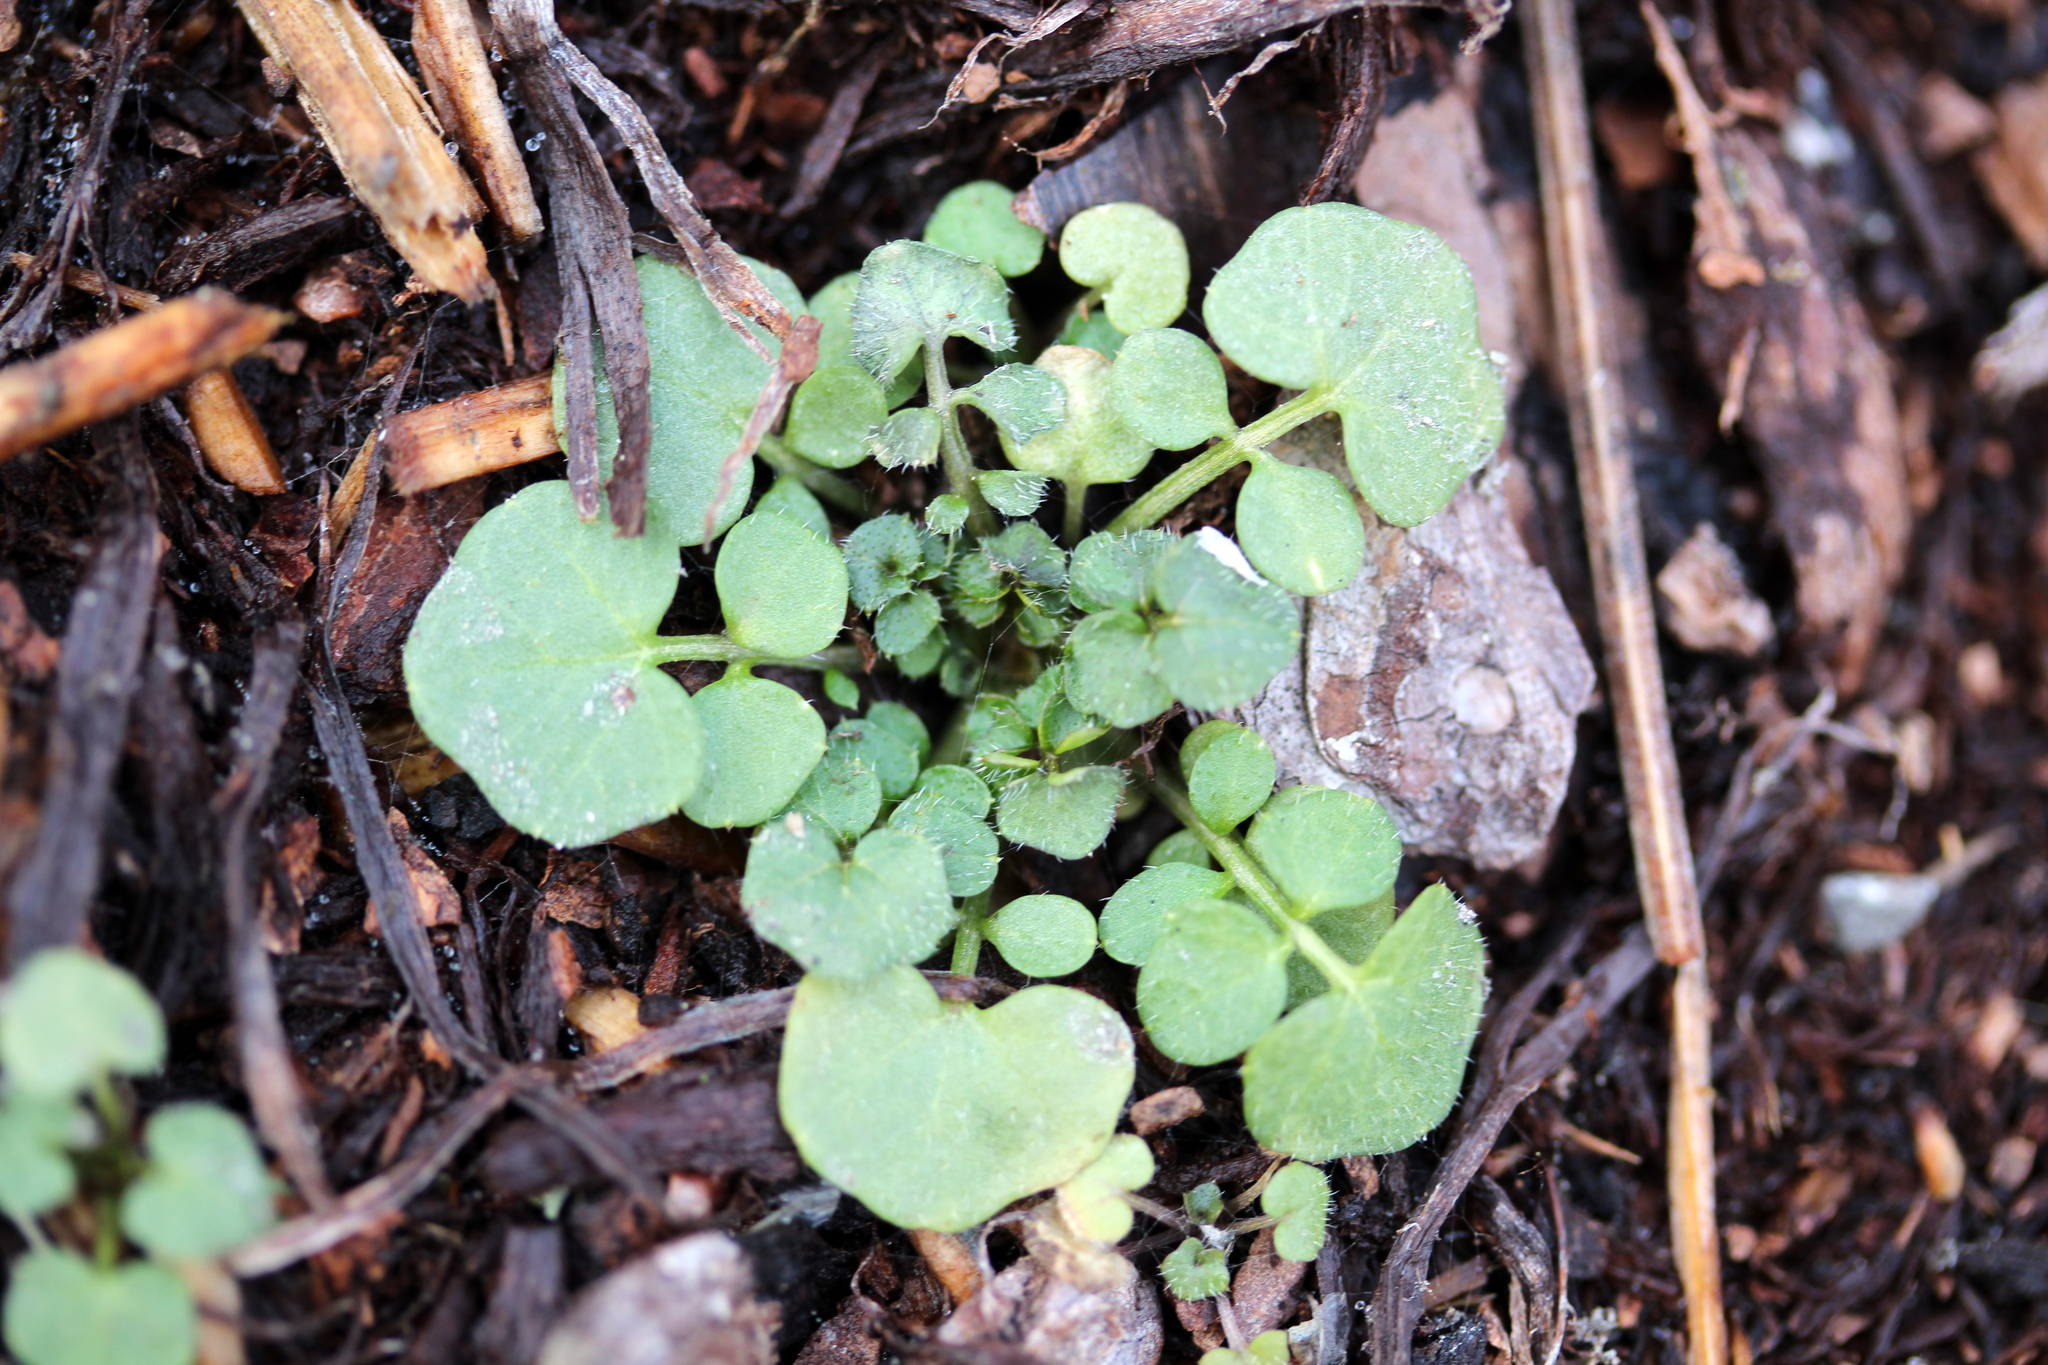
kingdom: Plantae
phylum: Tracheophyta
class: Magnoliopsida
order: Brassicales
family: Brassicaceae
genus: Cardamine
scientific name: Cardamine hirsuta
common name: Hairy bittercress
